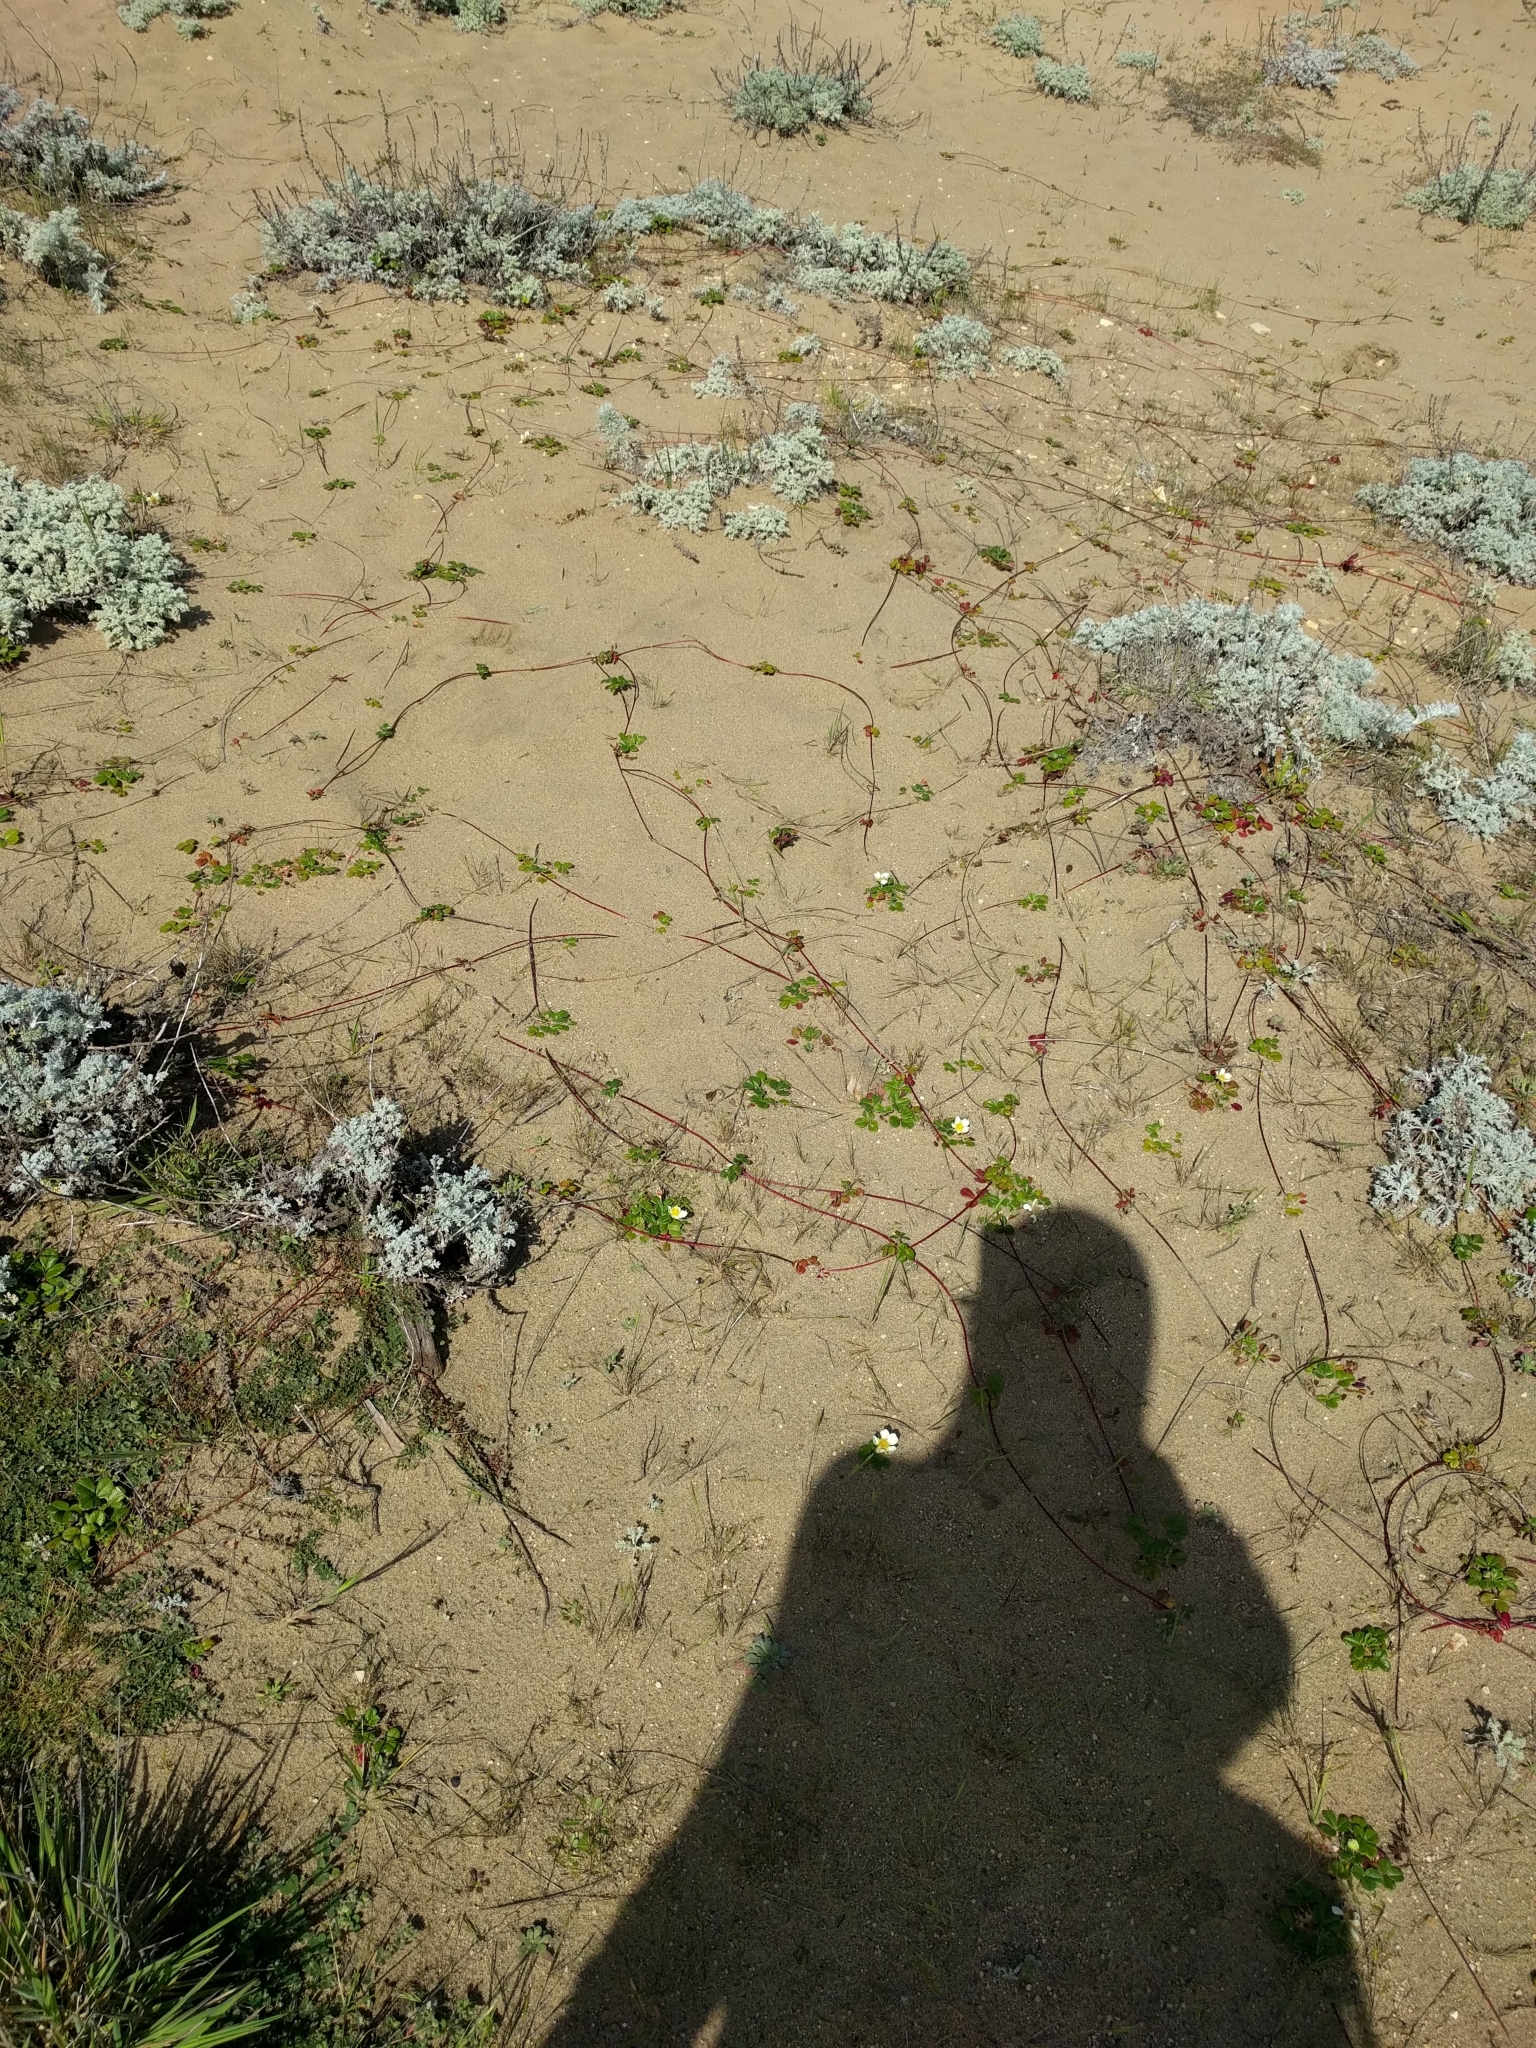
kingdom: Plantae
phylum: Tracheophyta
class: Magnoliopsida
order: Rosales
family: Rosaceae
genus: Fragaria
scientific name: Fragaria chiloensis
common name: Beach strawberry
